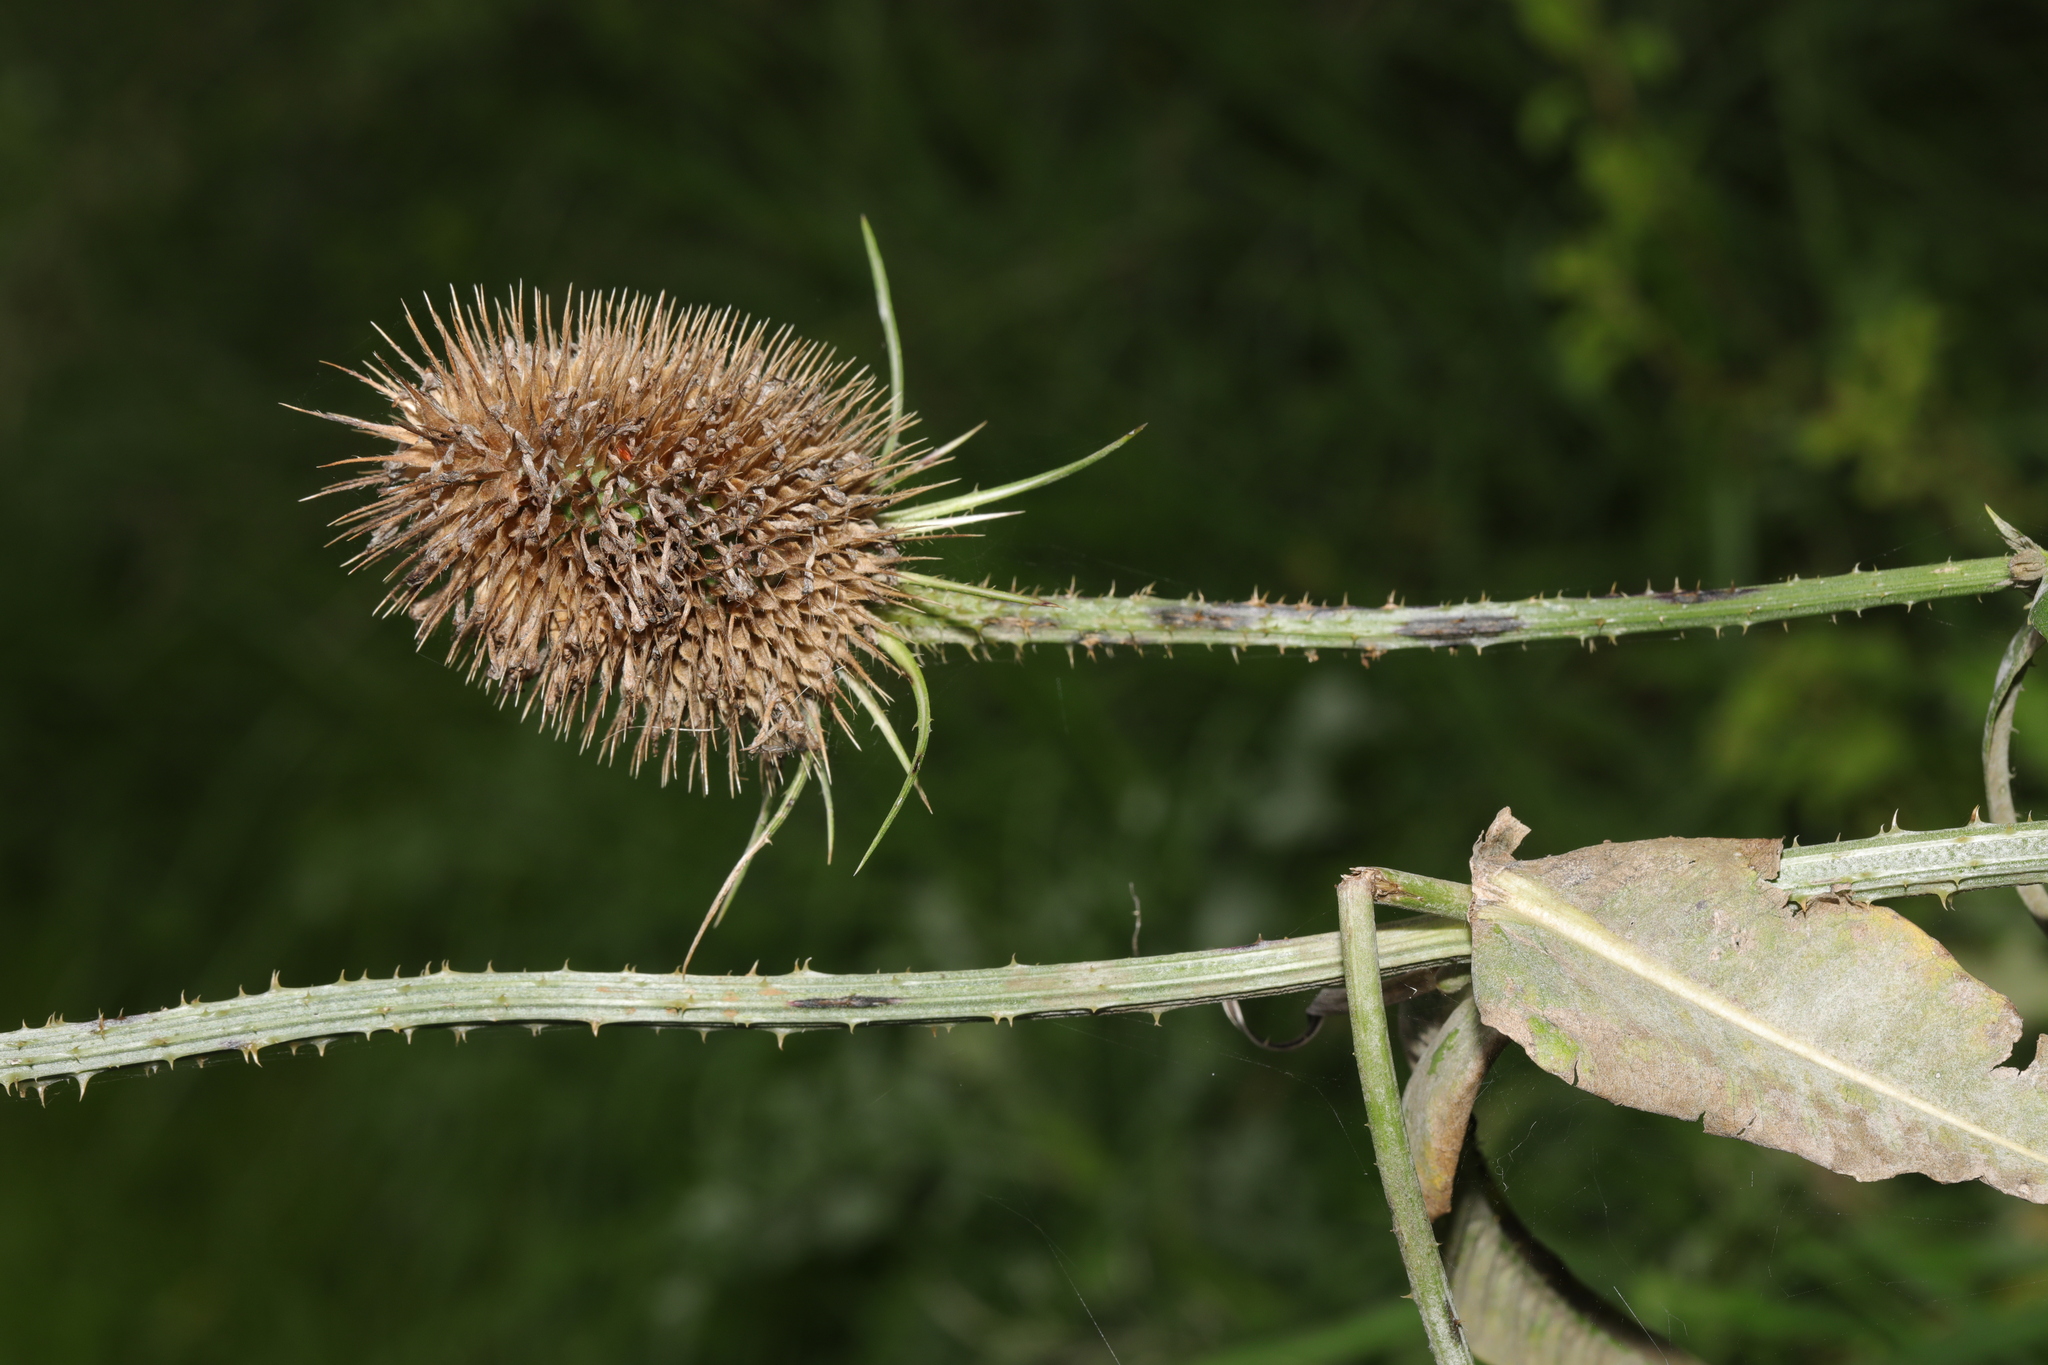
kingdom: Plantae
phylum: Tracheophyta
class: Magnoliopsida
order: Dipsacales
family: Caprifoliaceae
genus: Dipsacus
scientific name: Dipsacus fullonum
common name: Teasel
